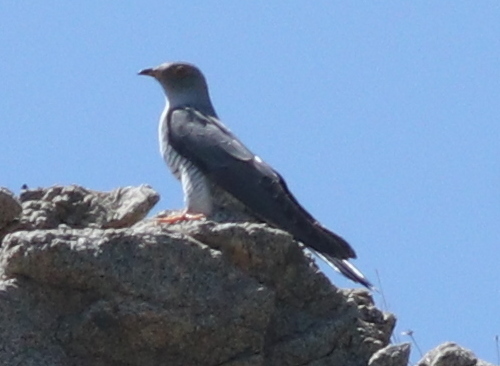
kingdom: Animalia
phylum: Chordata
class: Aves
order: Cuculiformes
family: Cuculidae
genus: Cuculus
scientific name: Cuculus canorus
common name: Common cuckoo
